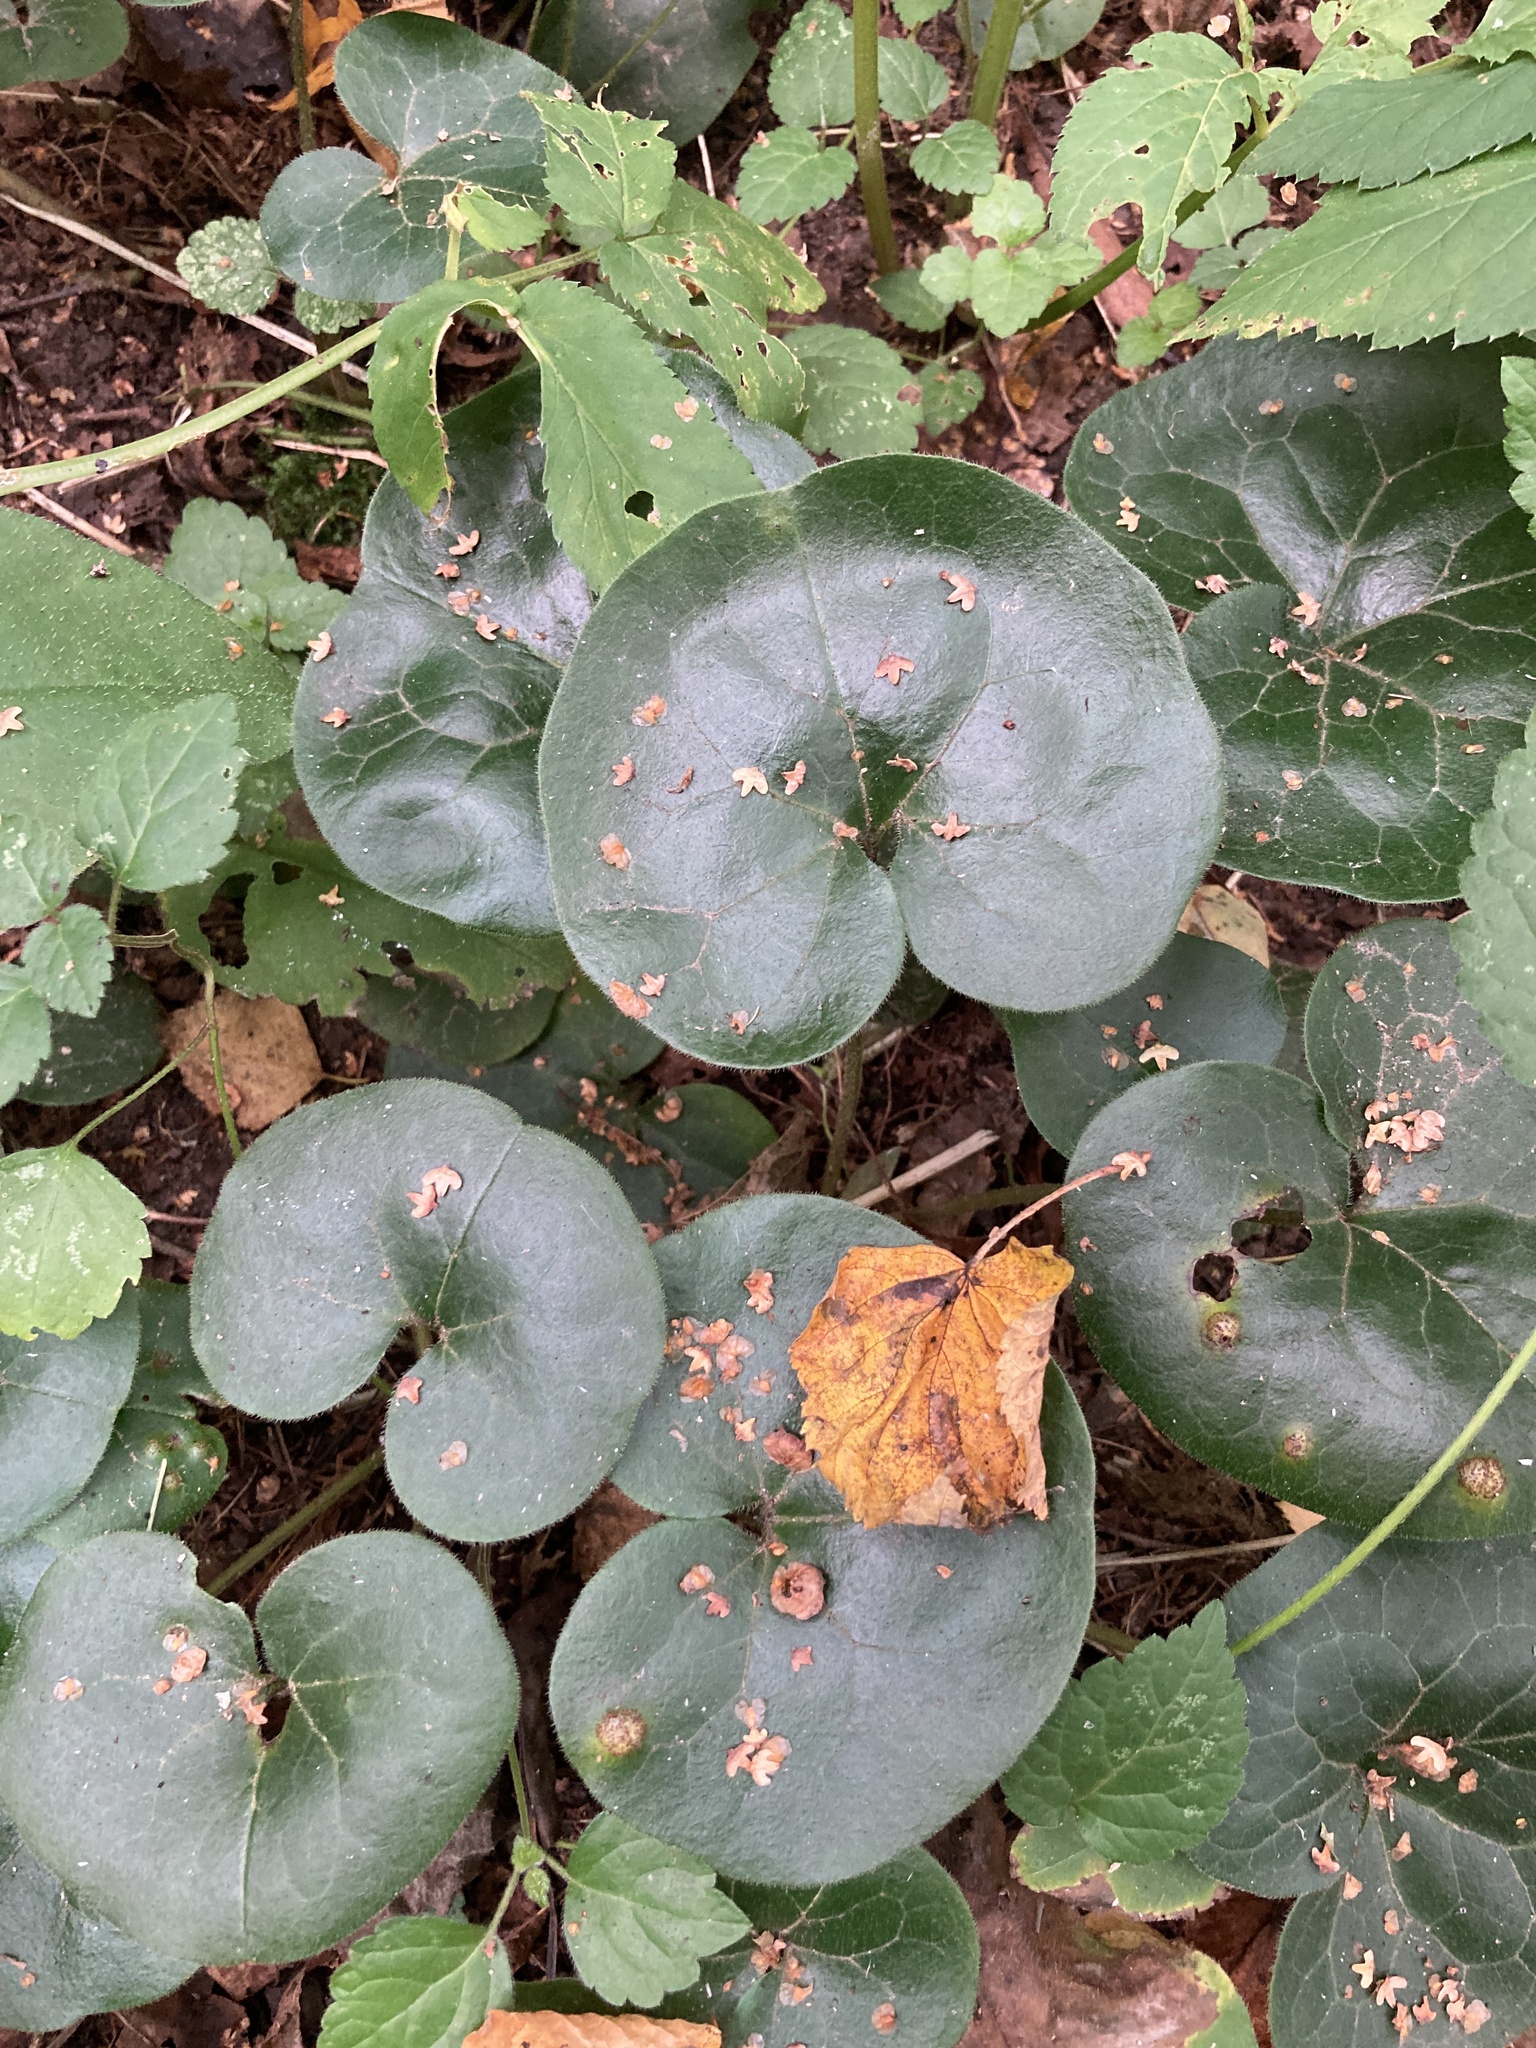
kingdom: Plantae
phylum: Tracheophyta
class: Magnoliopsida
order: Piperales
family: Aristolochiaceae
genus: Asarum
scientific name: Asarum europaeum
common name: Asarabacca
